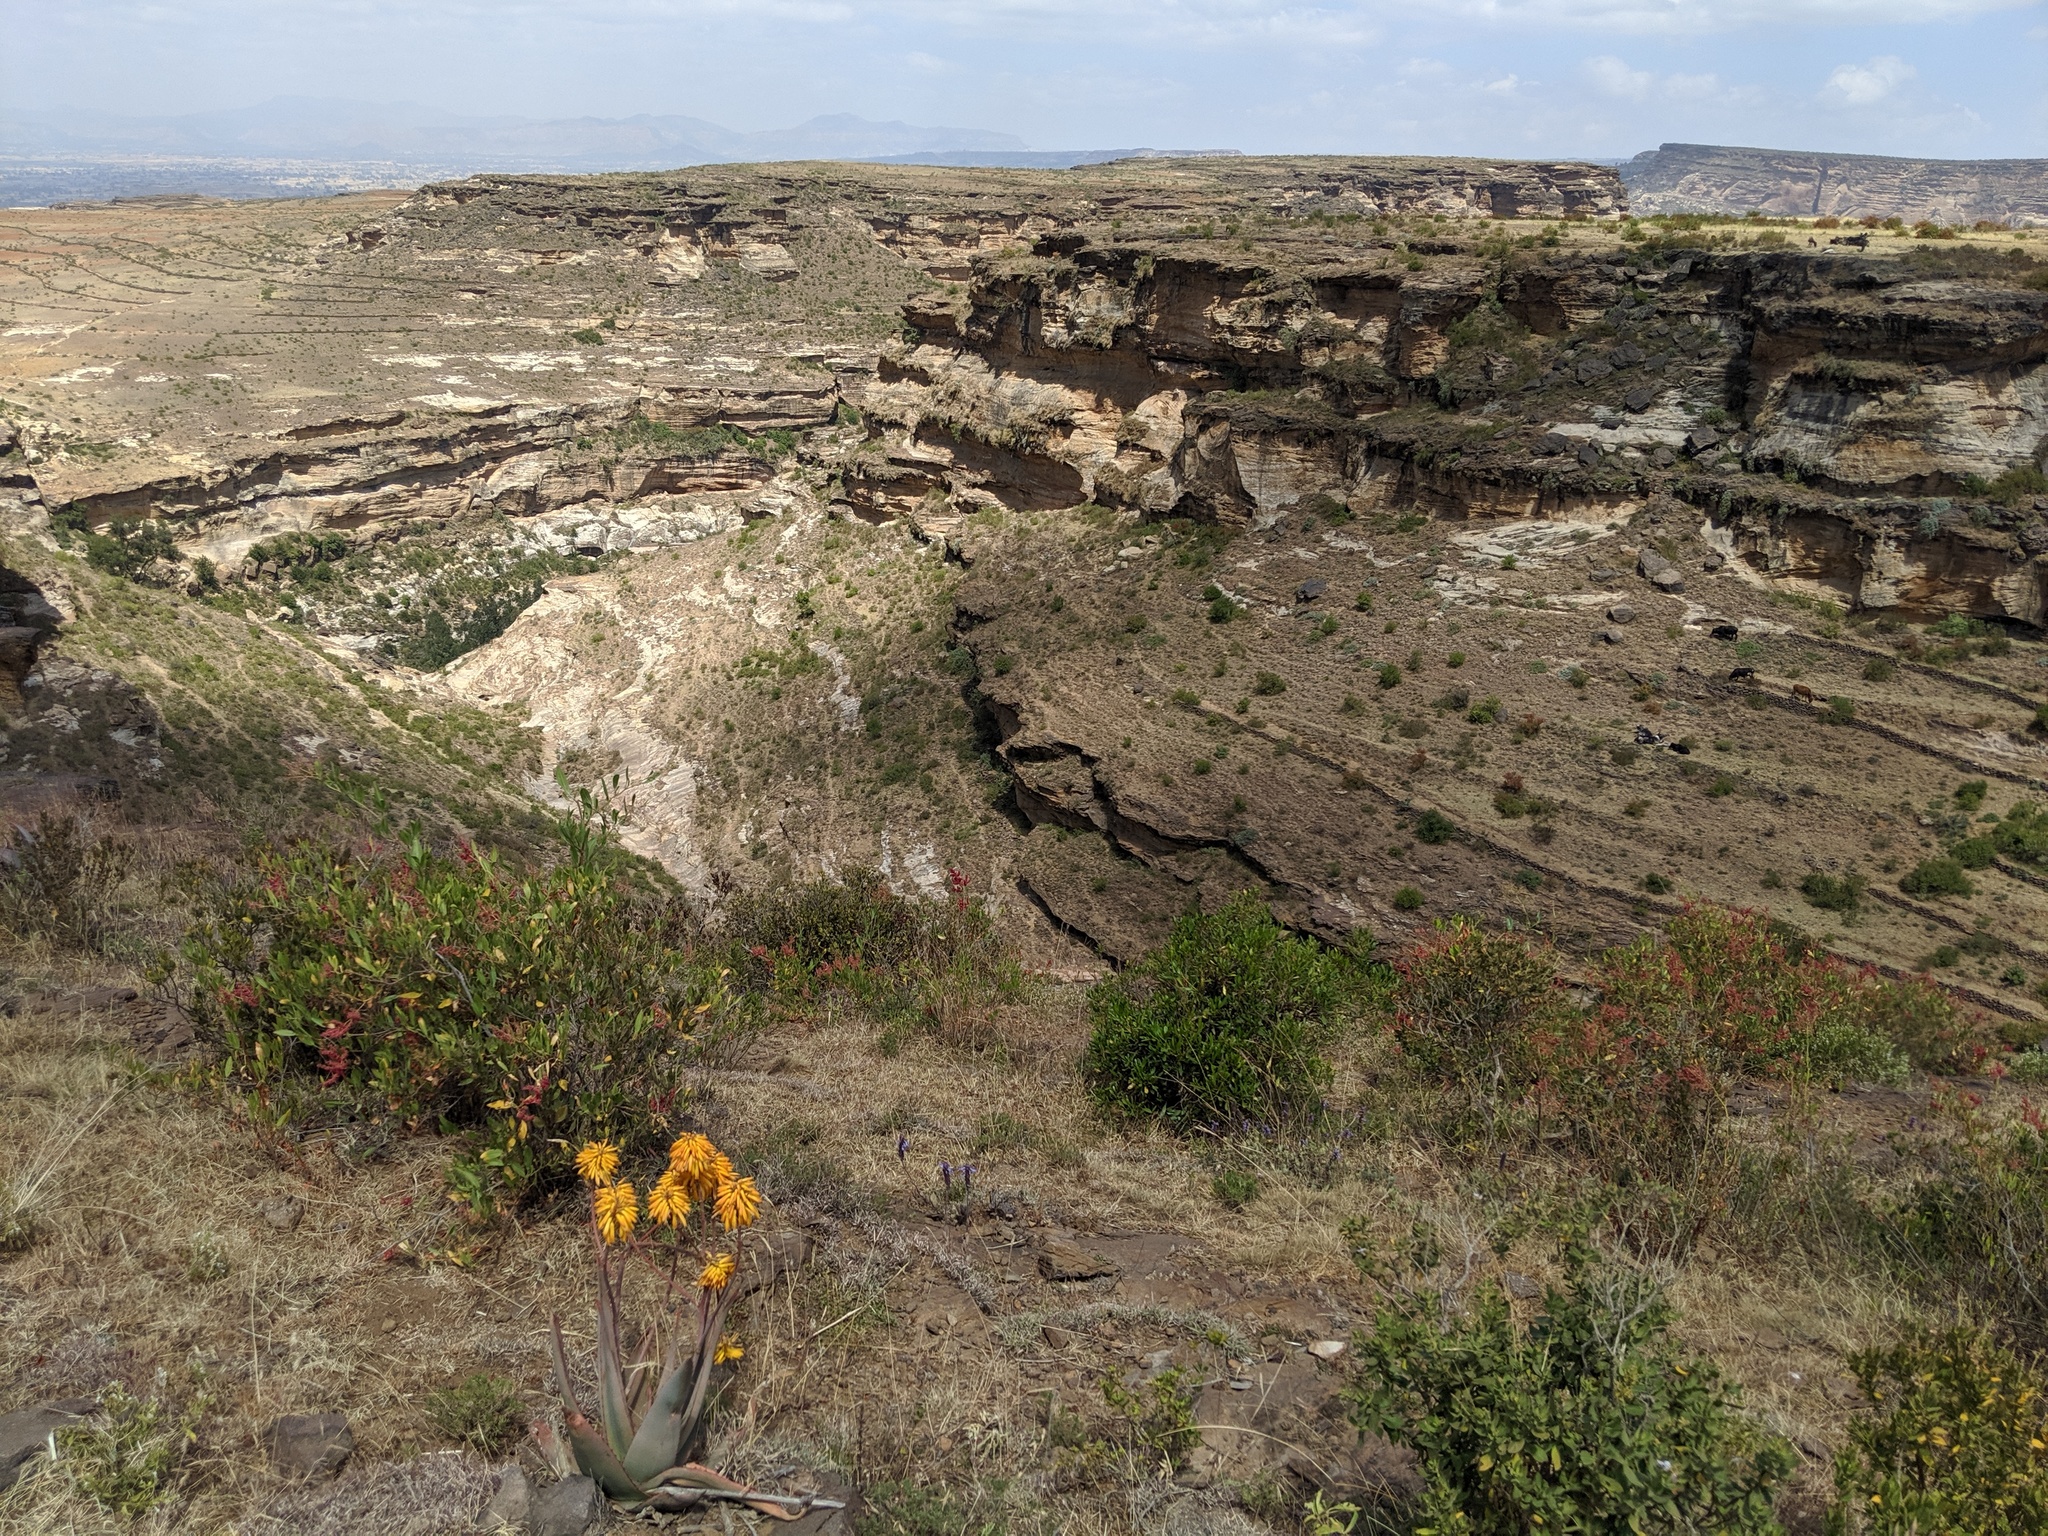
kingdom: Plantae
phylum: Tracheophyta
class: Liliopsida
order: Asparagales
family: Asphodelaceae
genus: Aloe
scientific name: Aloe elegans
